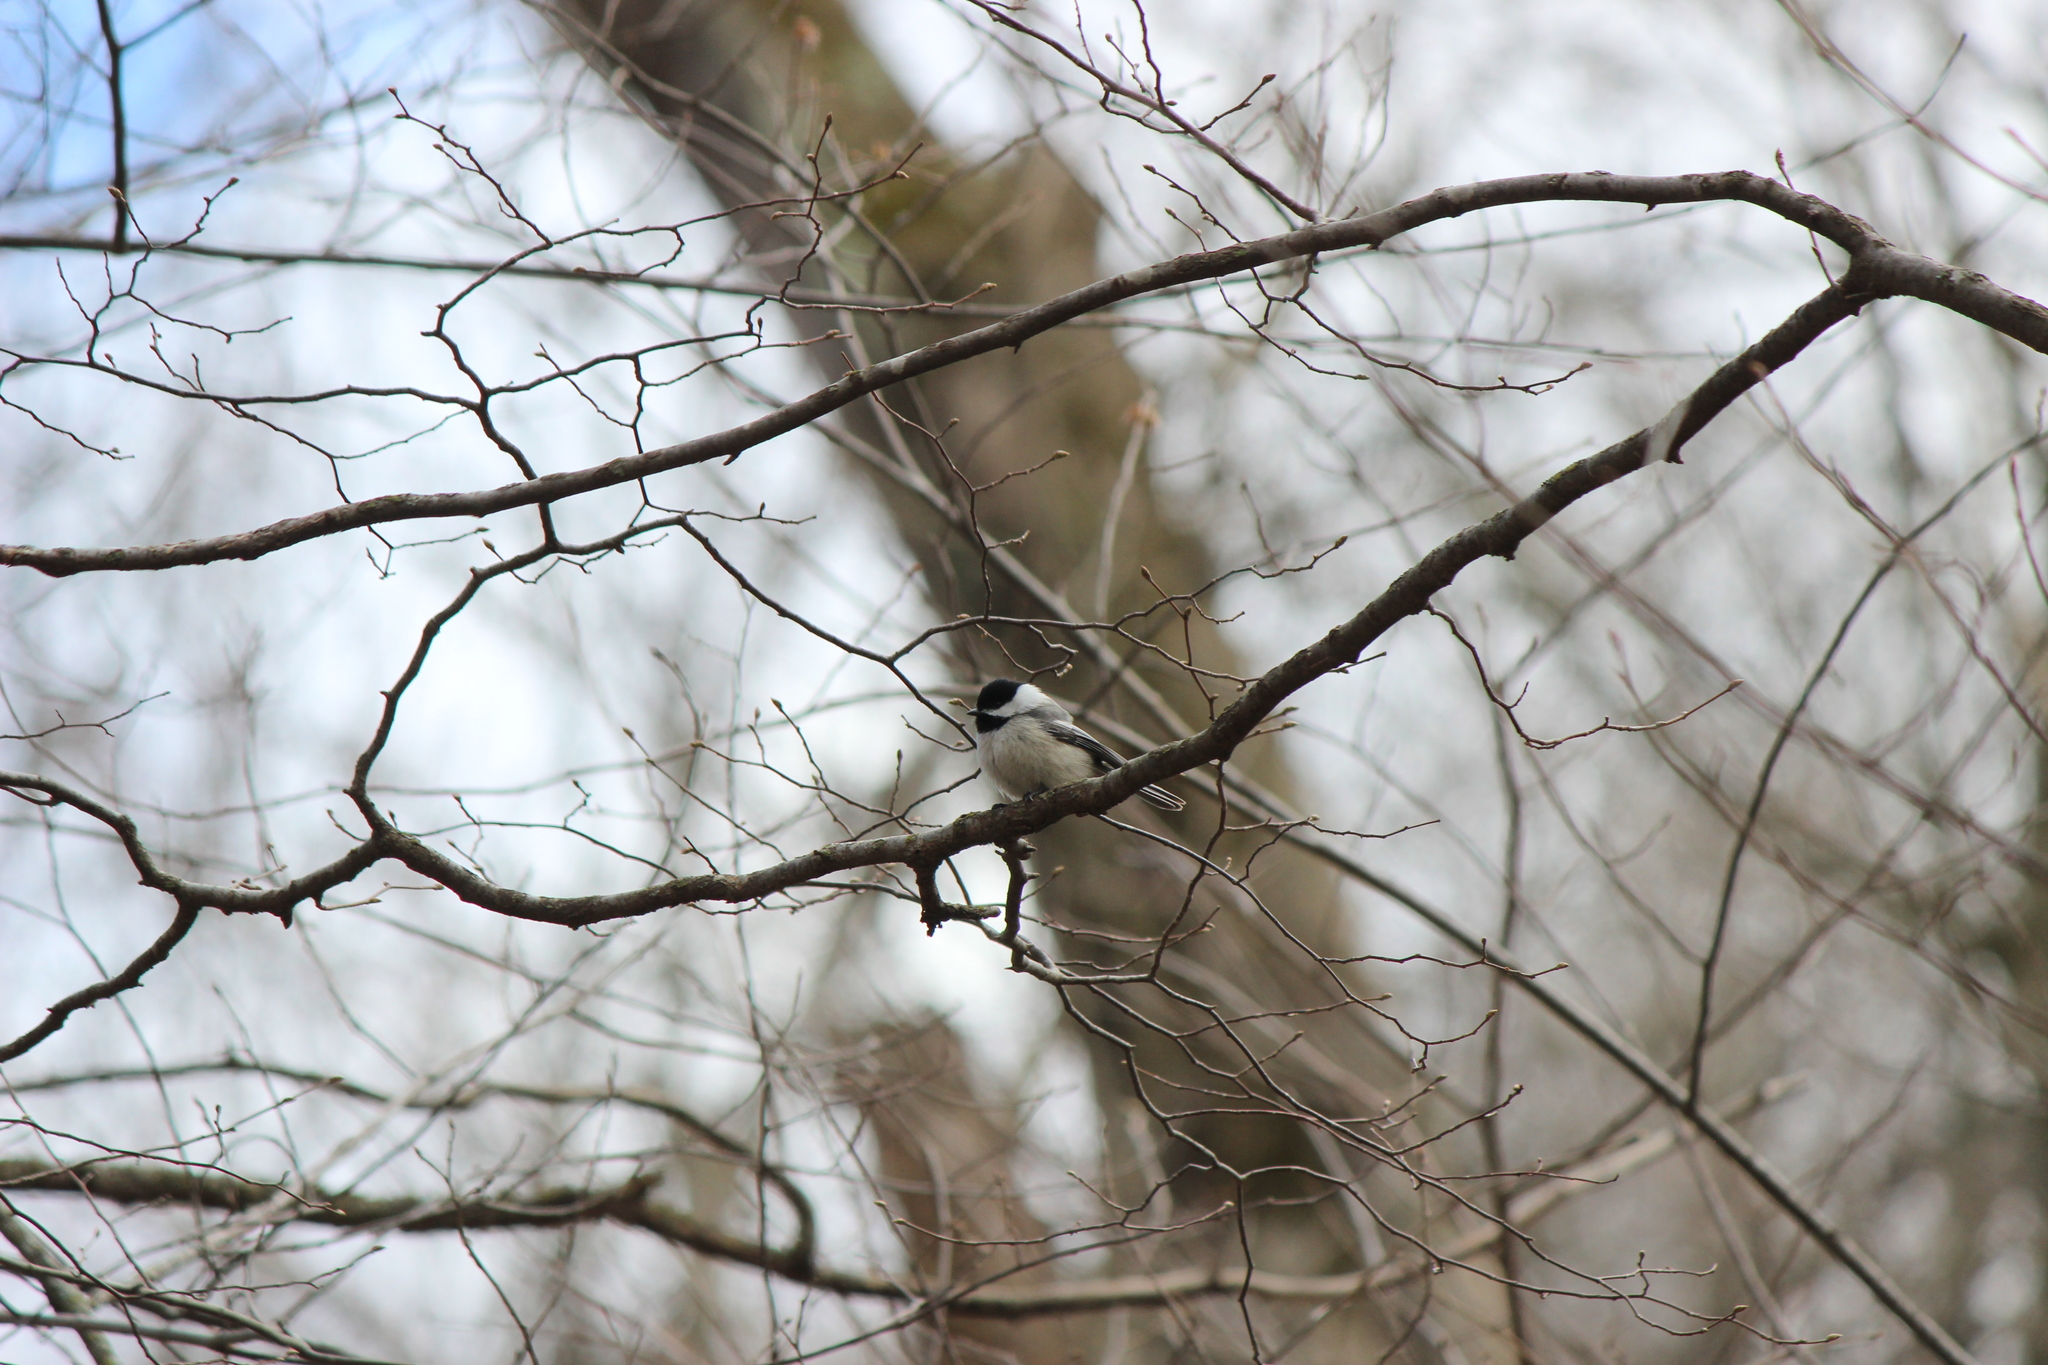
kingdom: Animalia
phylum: Chordata
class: Aves
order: Passeriformes
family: Paridae
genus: Poecile
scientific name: Poecile atricapillus
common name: Black-capped chickadee
